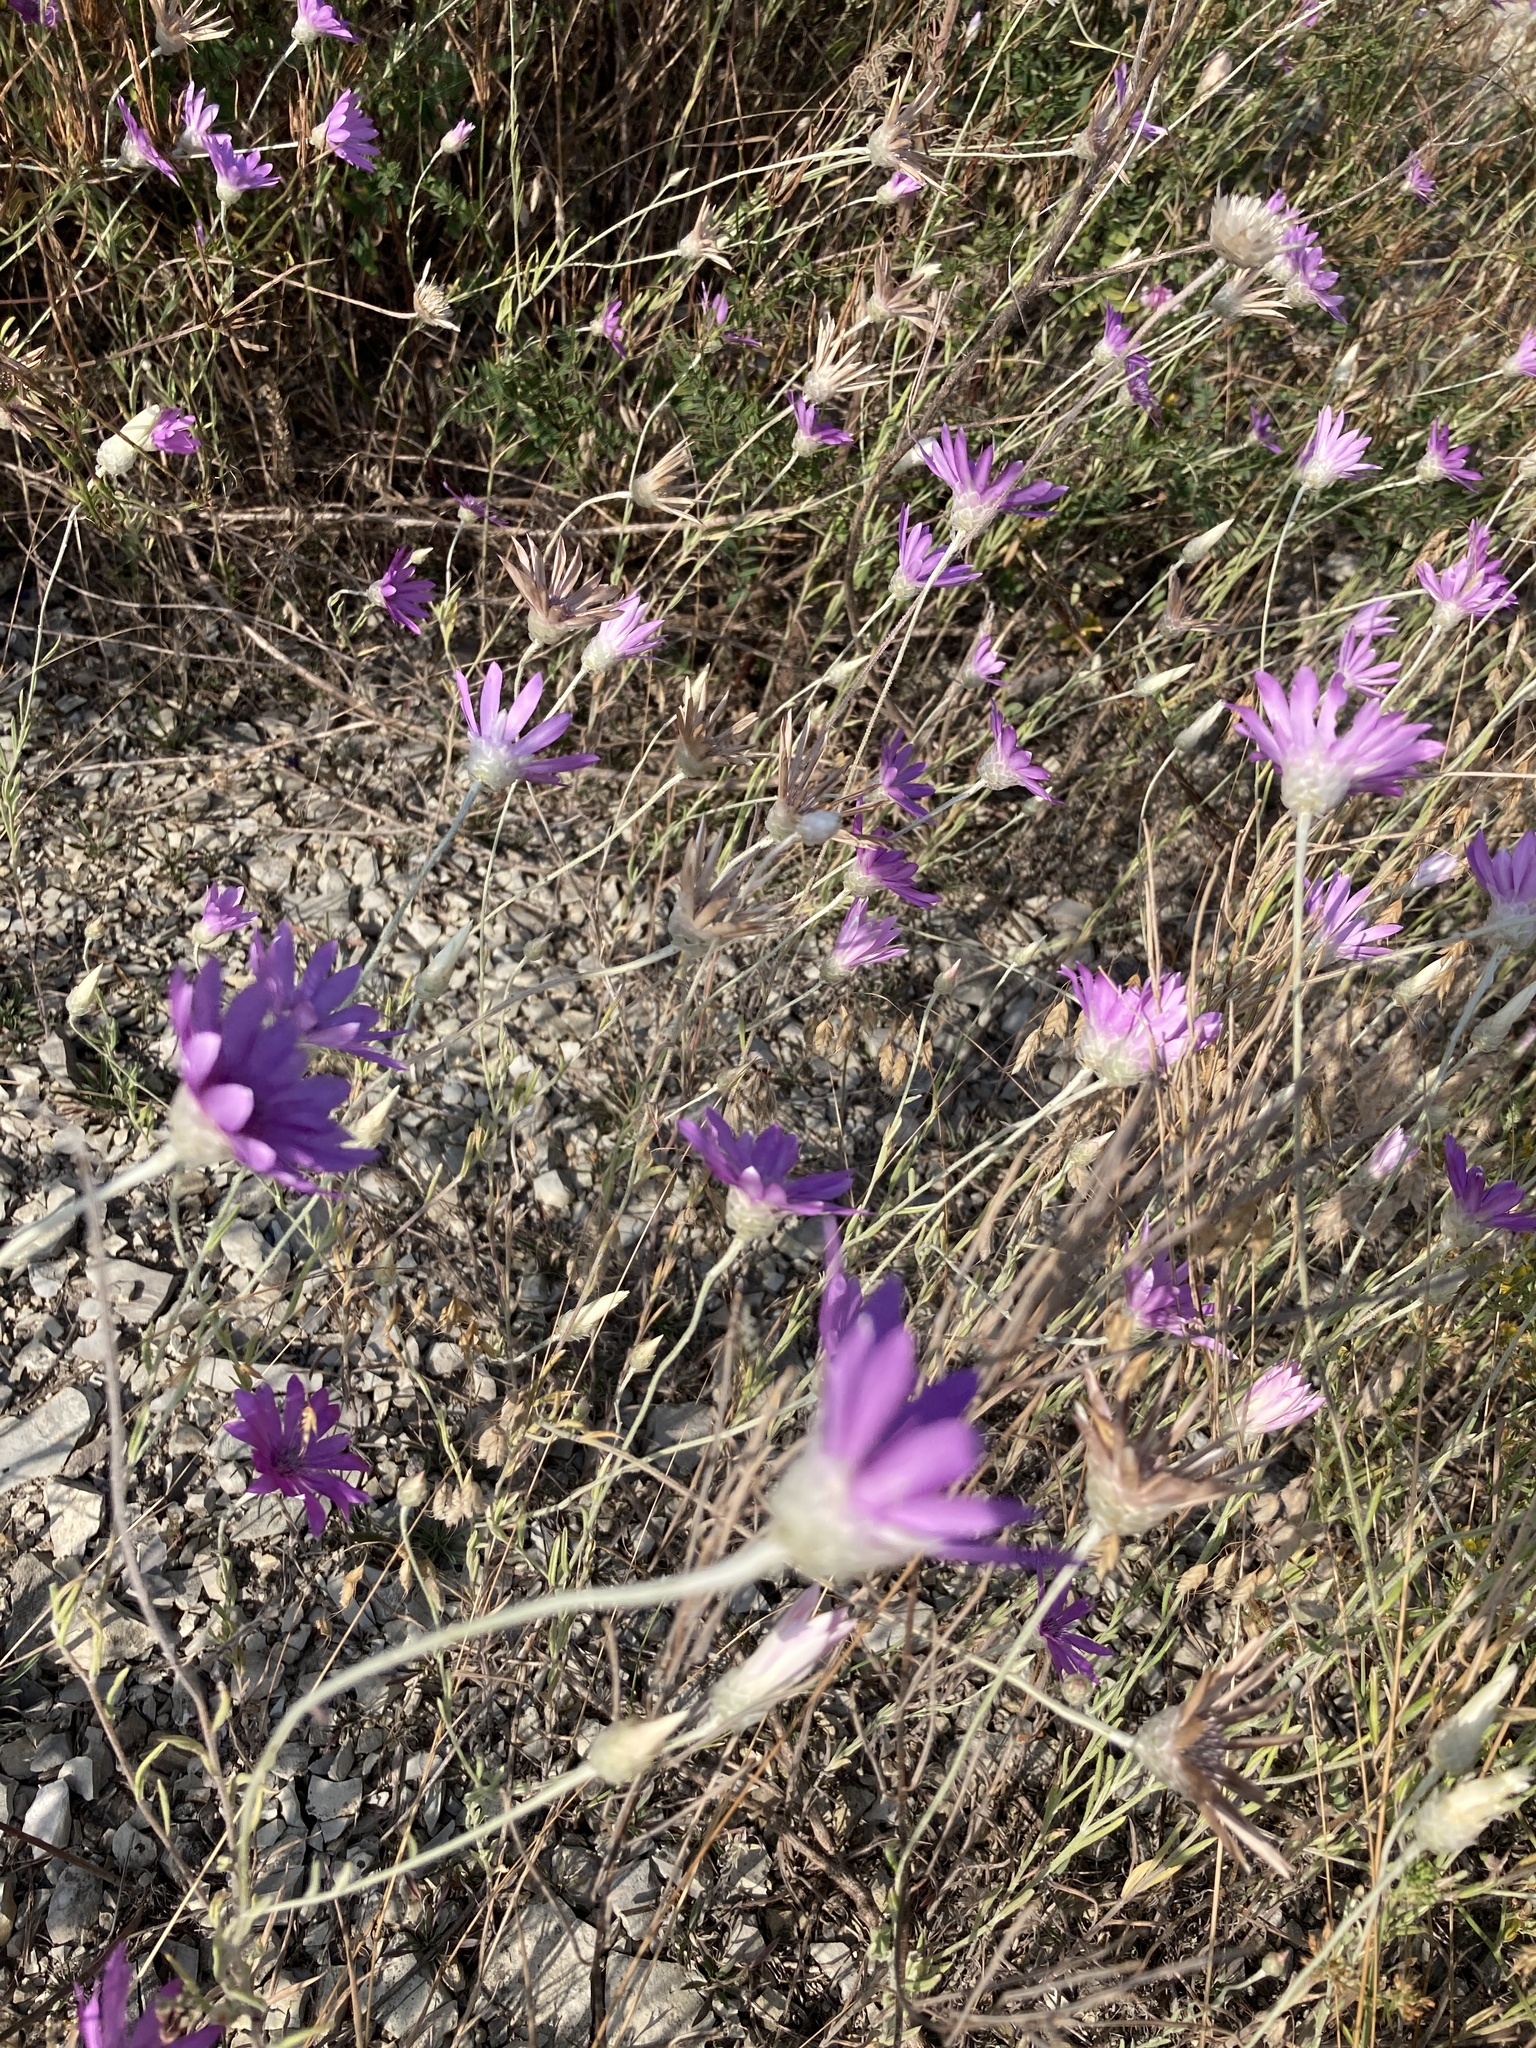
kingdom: Plantae
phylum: Tracheophyta
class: Magnoliopsida
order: Asterales
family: Asteraceae
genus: Xeranthemum
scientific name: Xeranthemum annuum
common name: Immortelle
